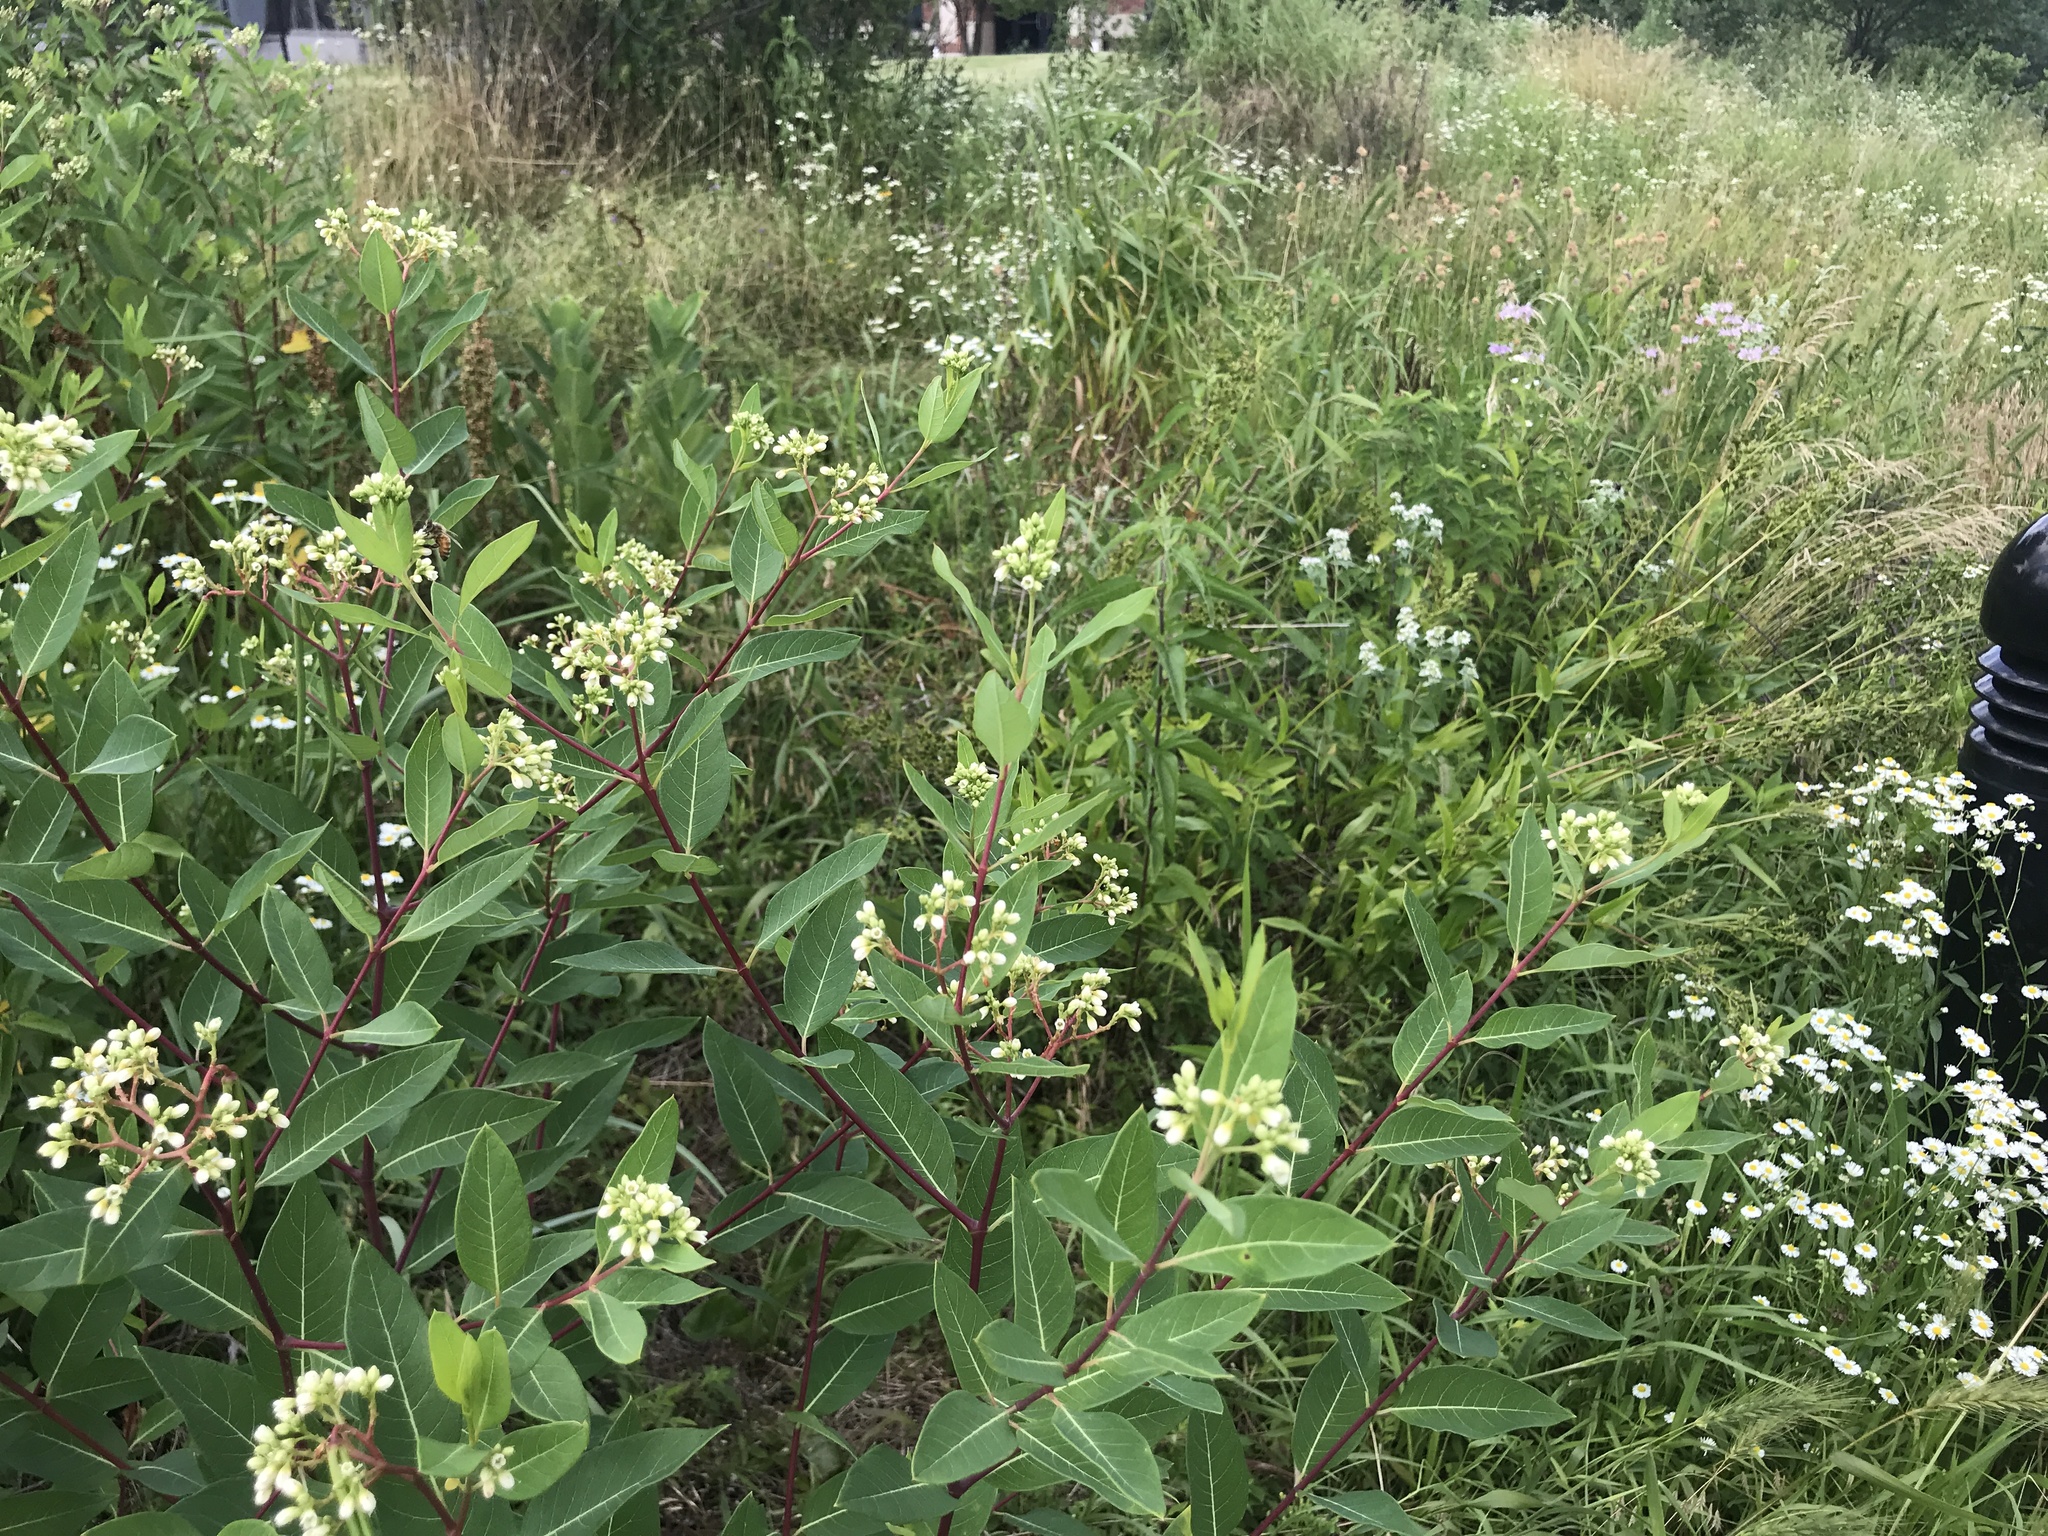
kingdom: Plantae
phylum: Tracheophyta
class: Magnoliopsida
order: Gentianales
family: Apocynaceae
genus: Apocynum
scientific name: Apocynum cannabinum
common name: Hemp dogbane
